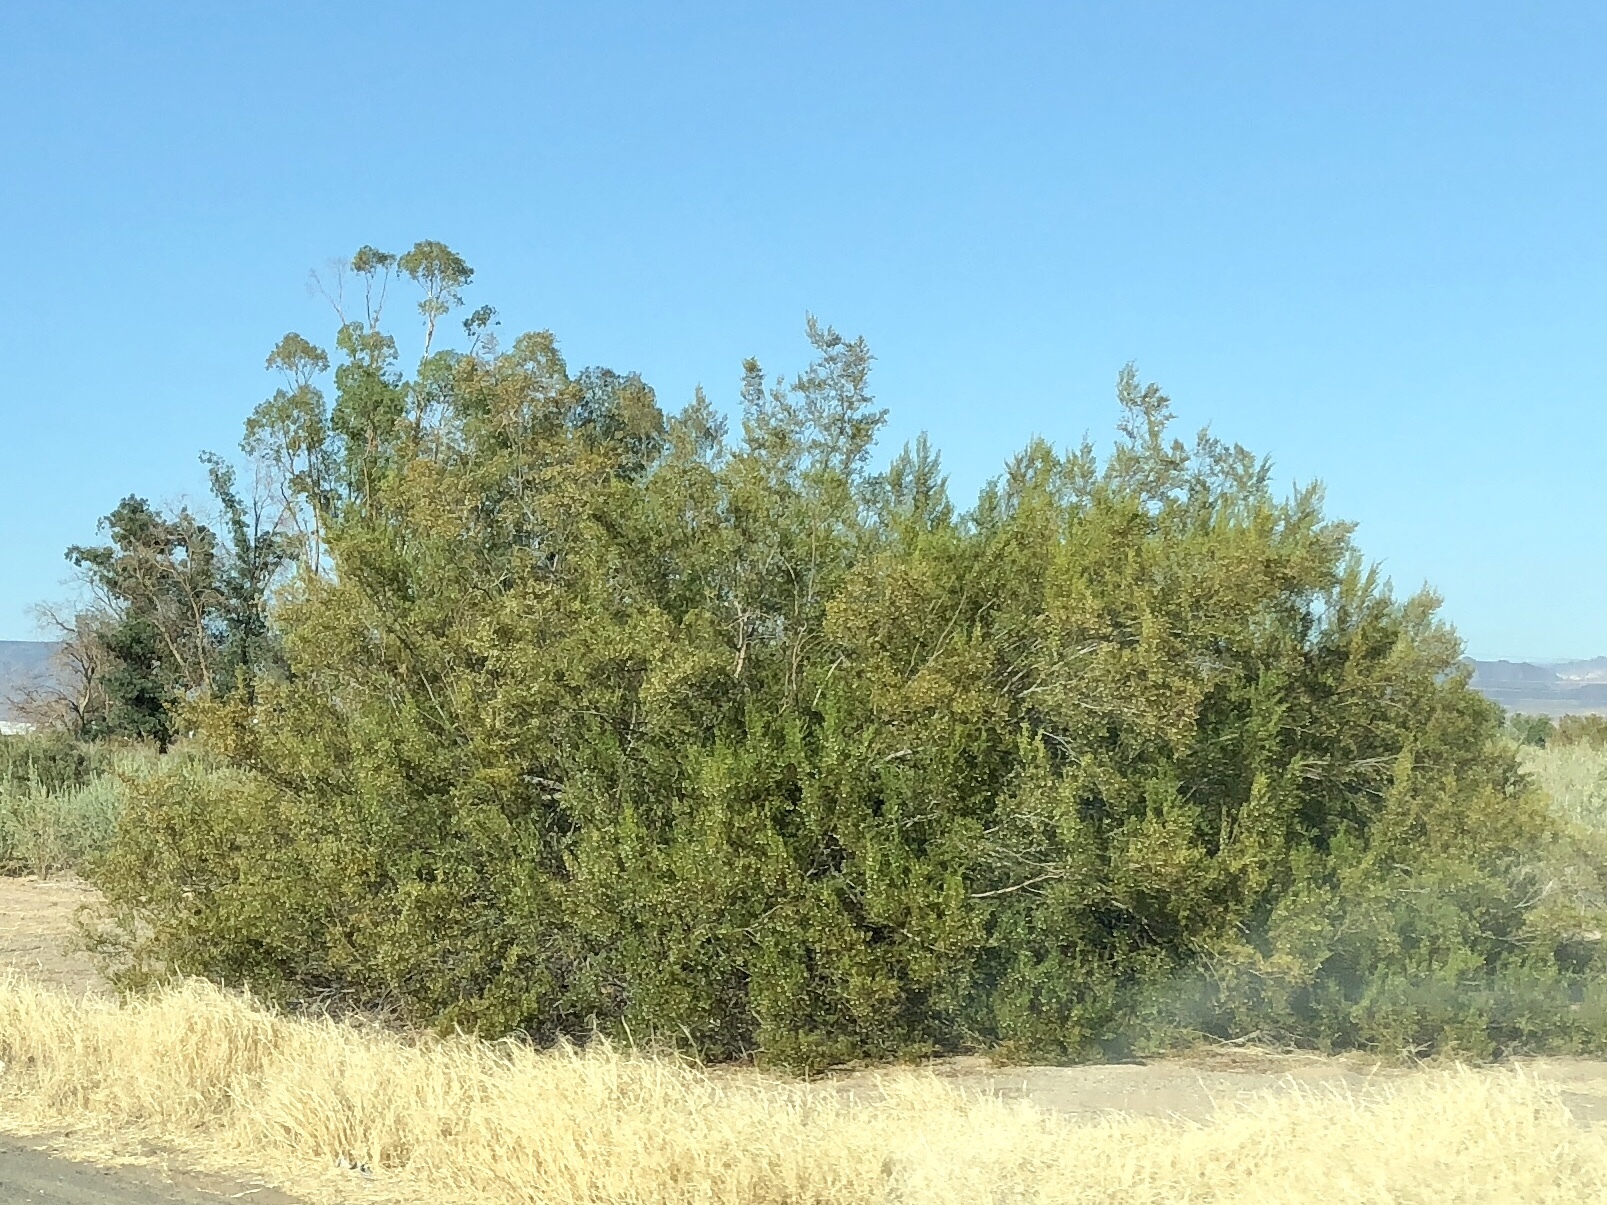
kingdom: Plantae
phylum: Tracheophyta
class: Magnoliopsida
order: Zygophyllales
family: Zygophyllaceae
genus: Larrea
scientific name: Larrea tridentata
